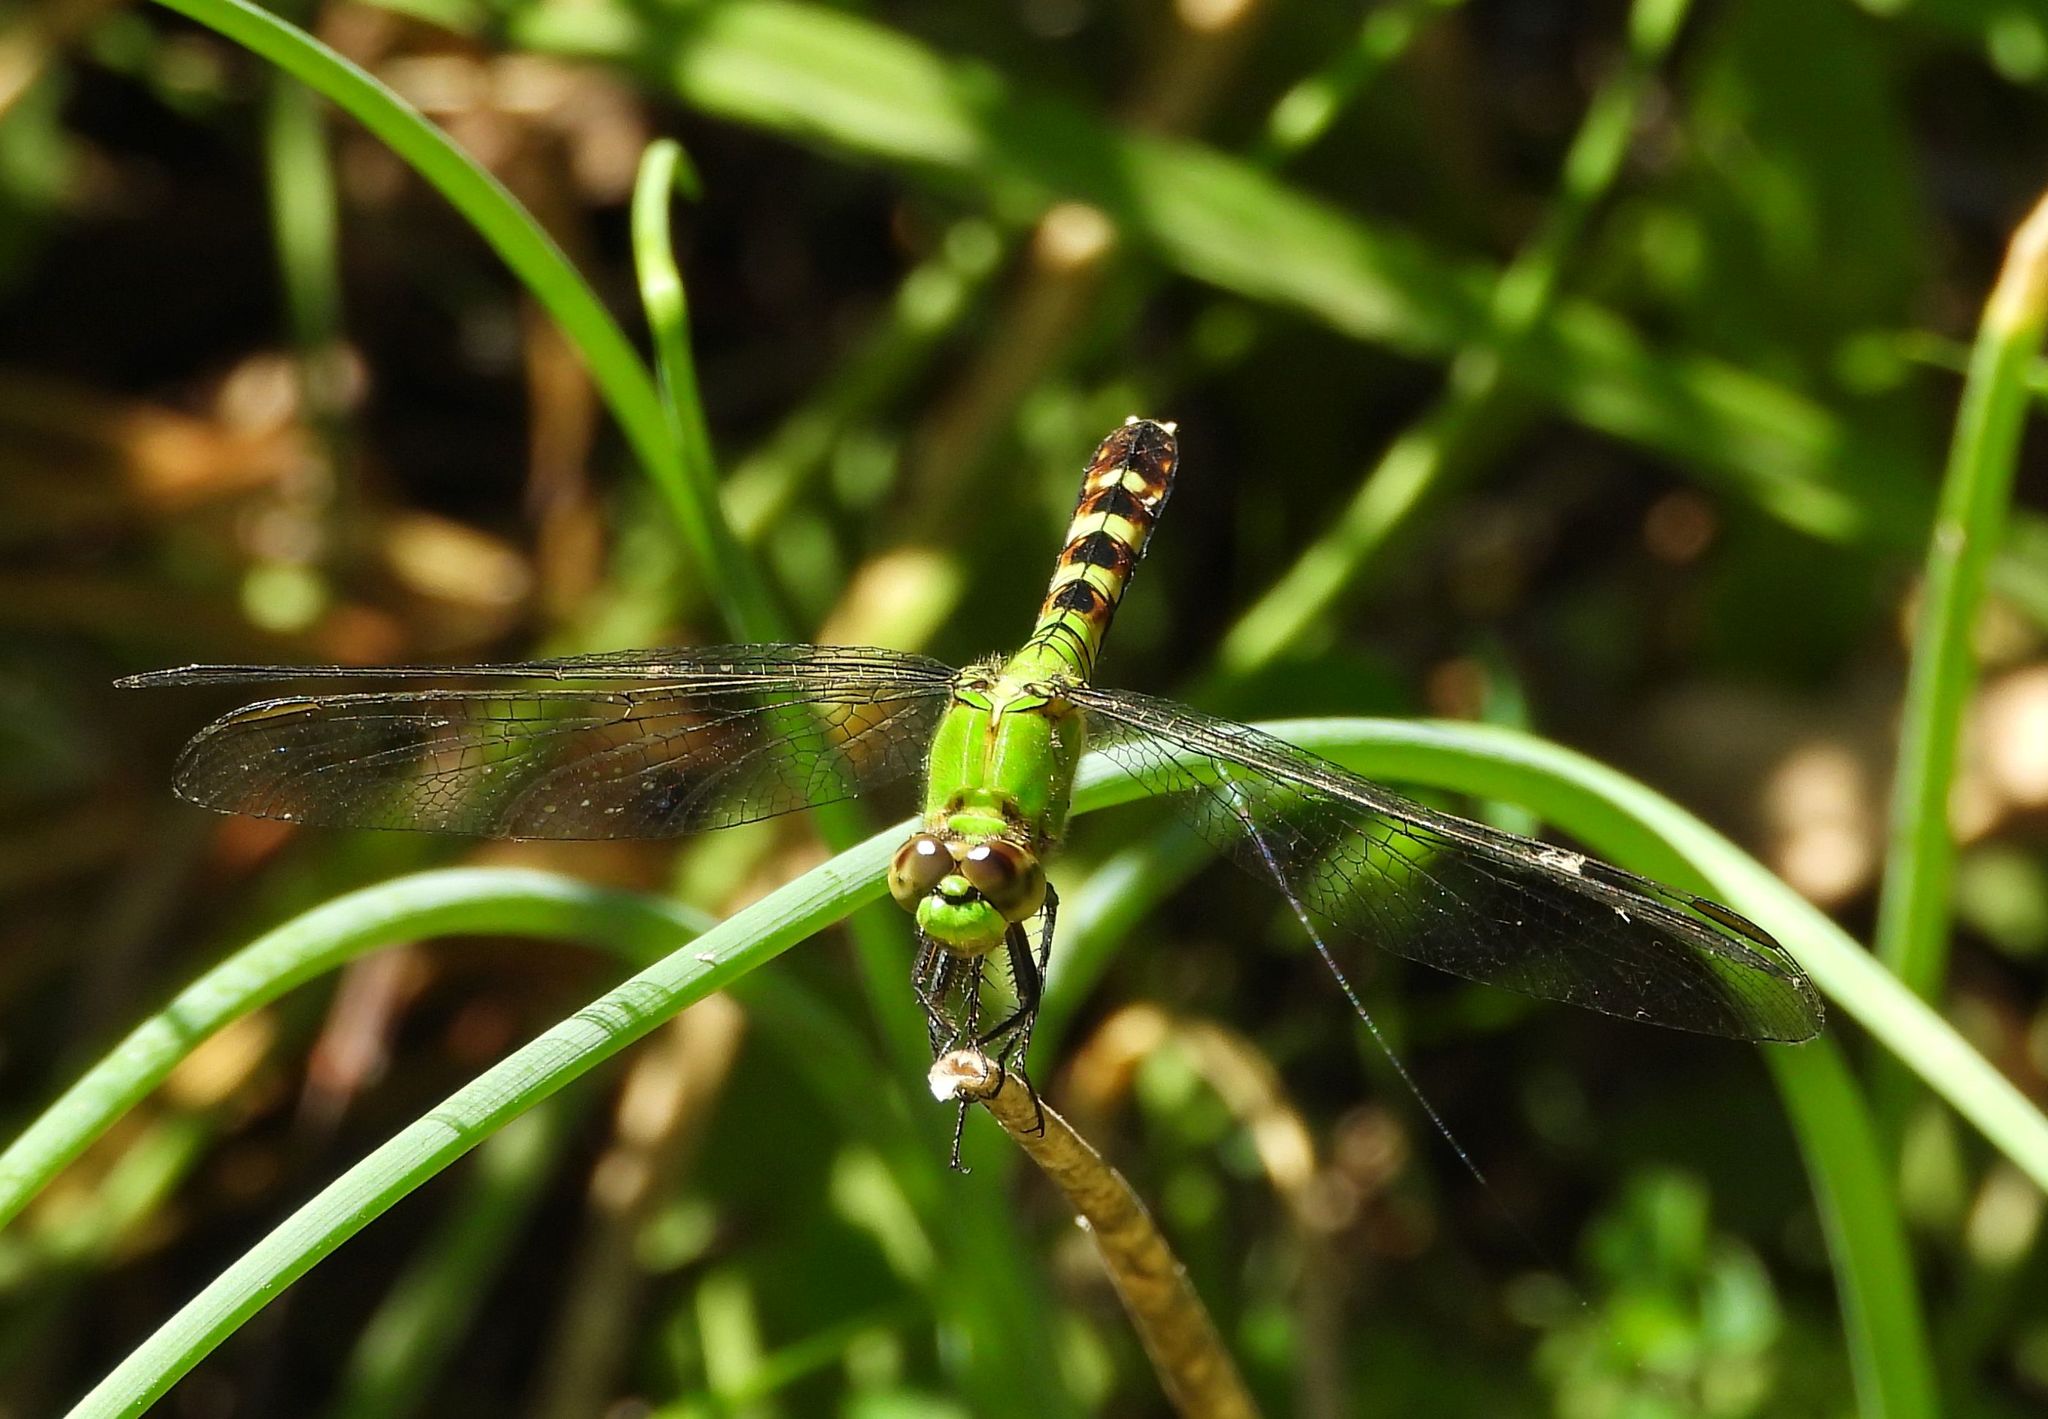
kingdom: Animalia
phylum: Arthropoda
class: Insecta
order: Odonata
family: Libellulidae
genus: Erythemis
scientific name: Erythemis simplicicollis
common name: Eastern pondhawk
